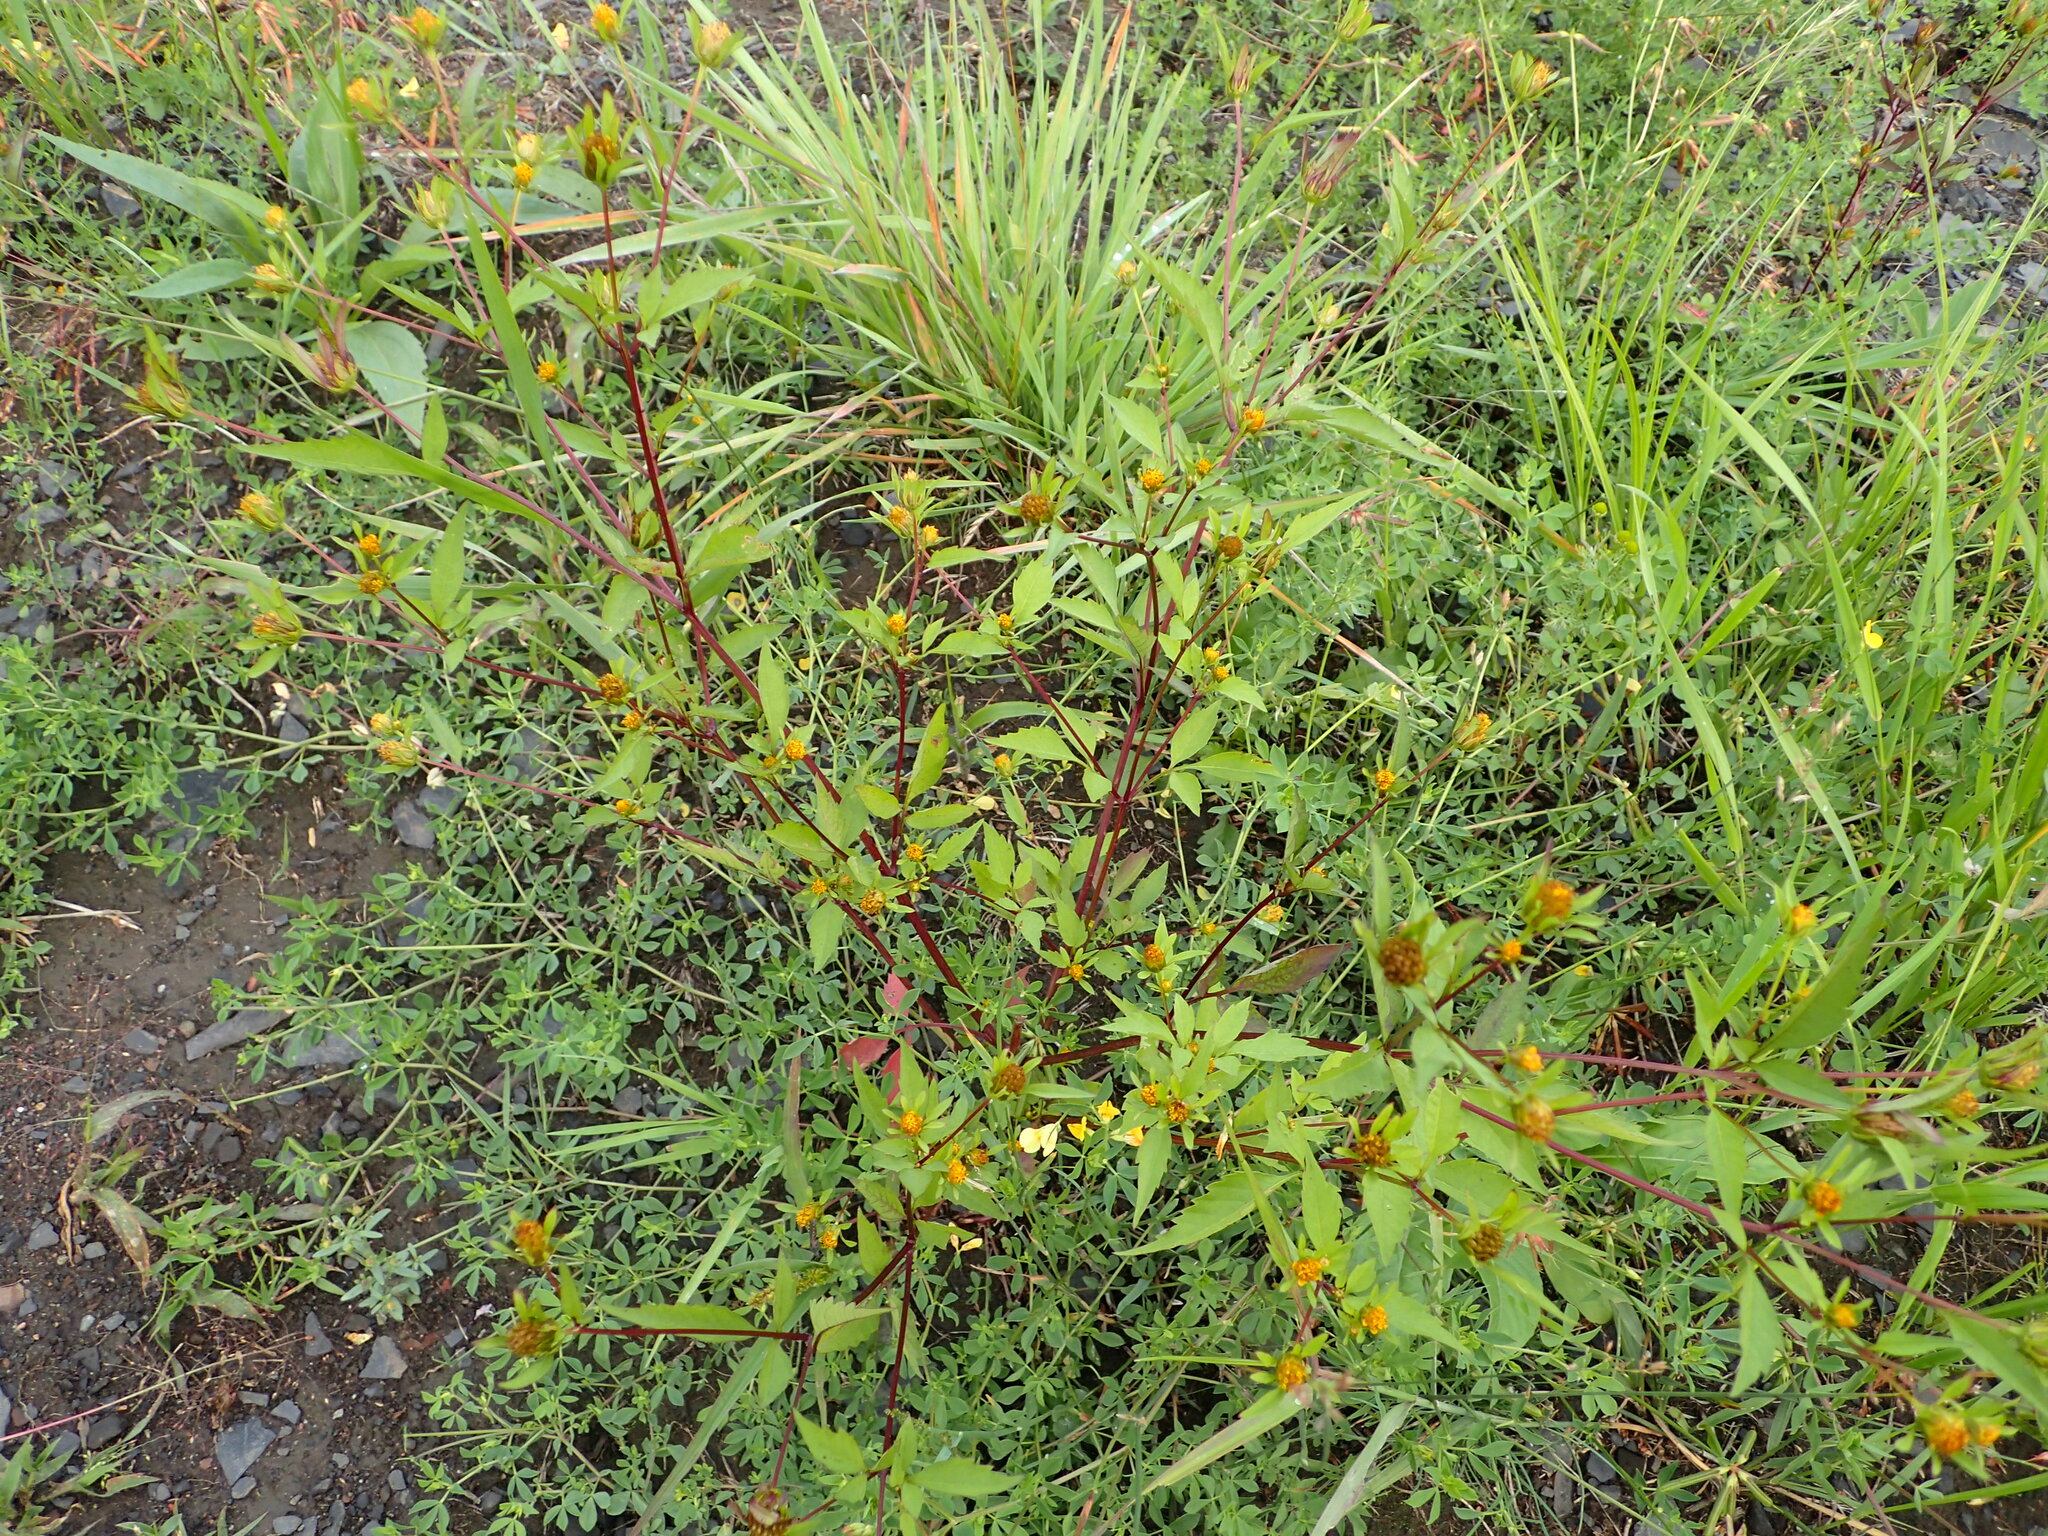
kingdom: Plantae
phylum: Tracheophyta
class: Magnoliopsida
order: Asterales
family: Asteraceae
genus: Bidens
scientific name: Bidens connata
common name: London bur-marigold
